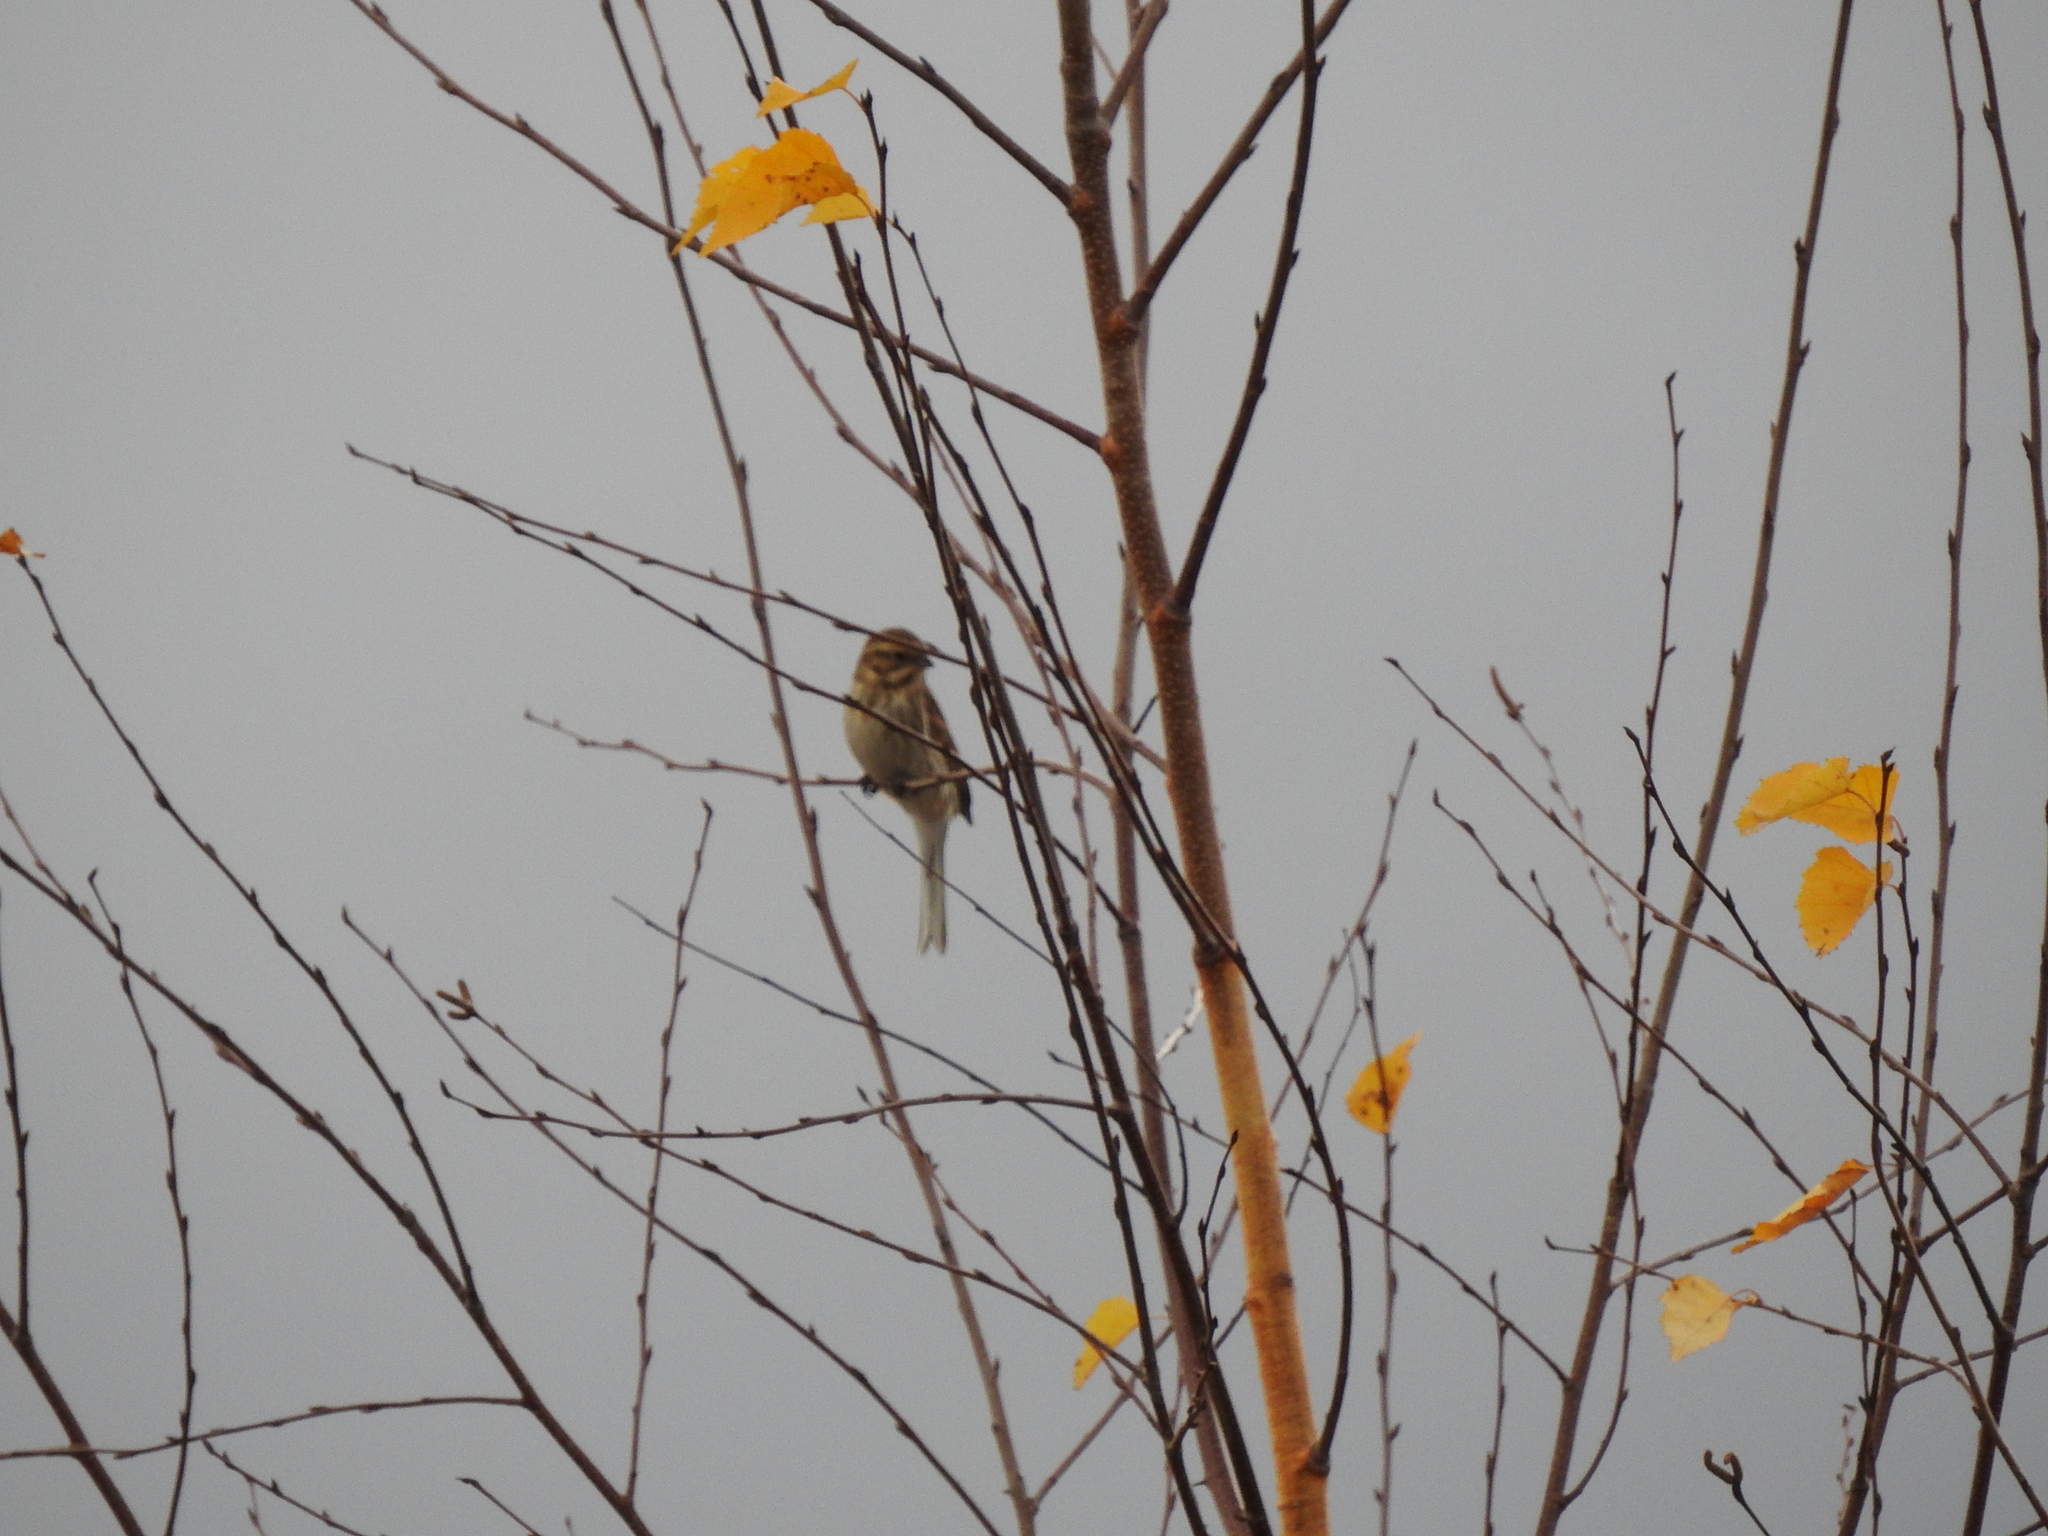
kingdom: Animalia
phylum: Chordata
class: Aves
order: Passeriformes
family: Emberizidae
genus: Emberiza
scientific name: Emberiza schoeniclus
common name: Reed bunting
